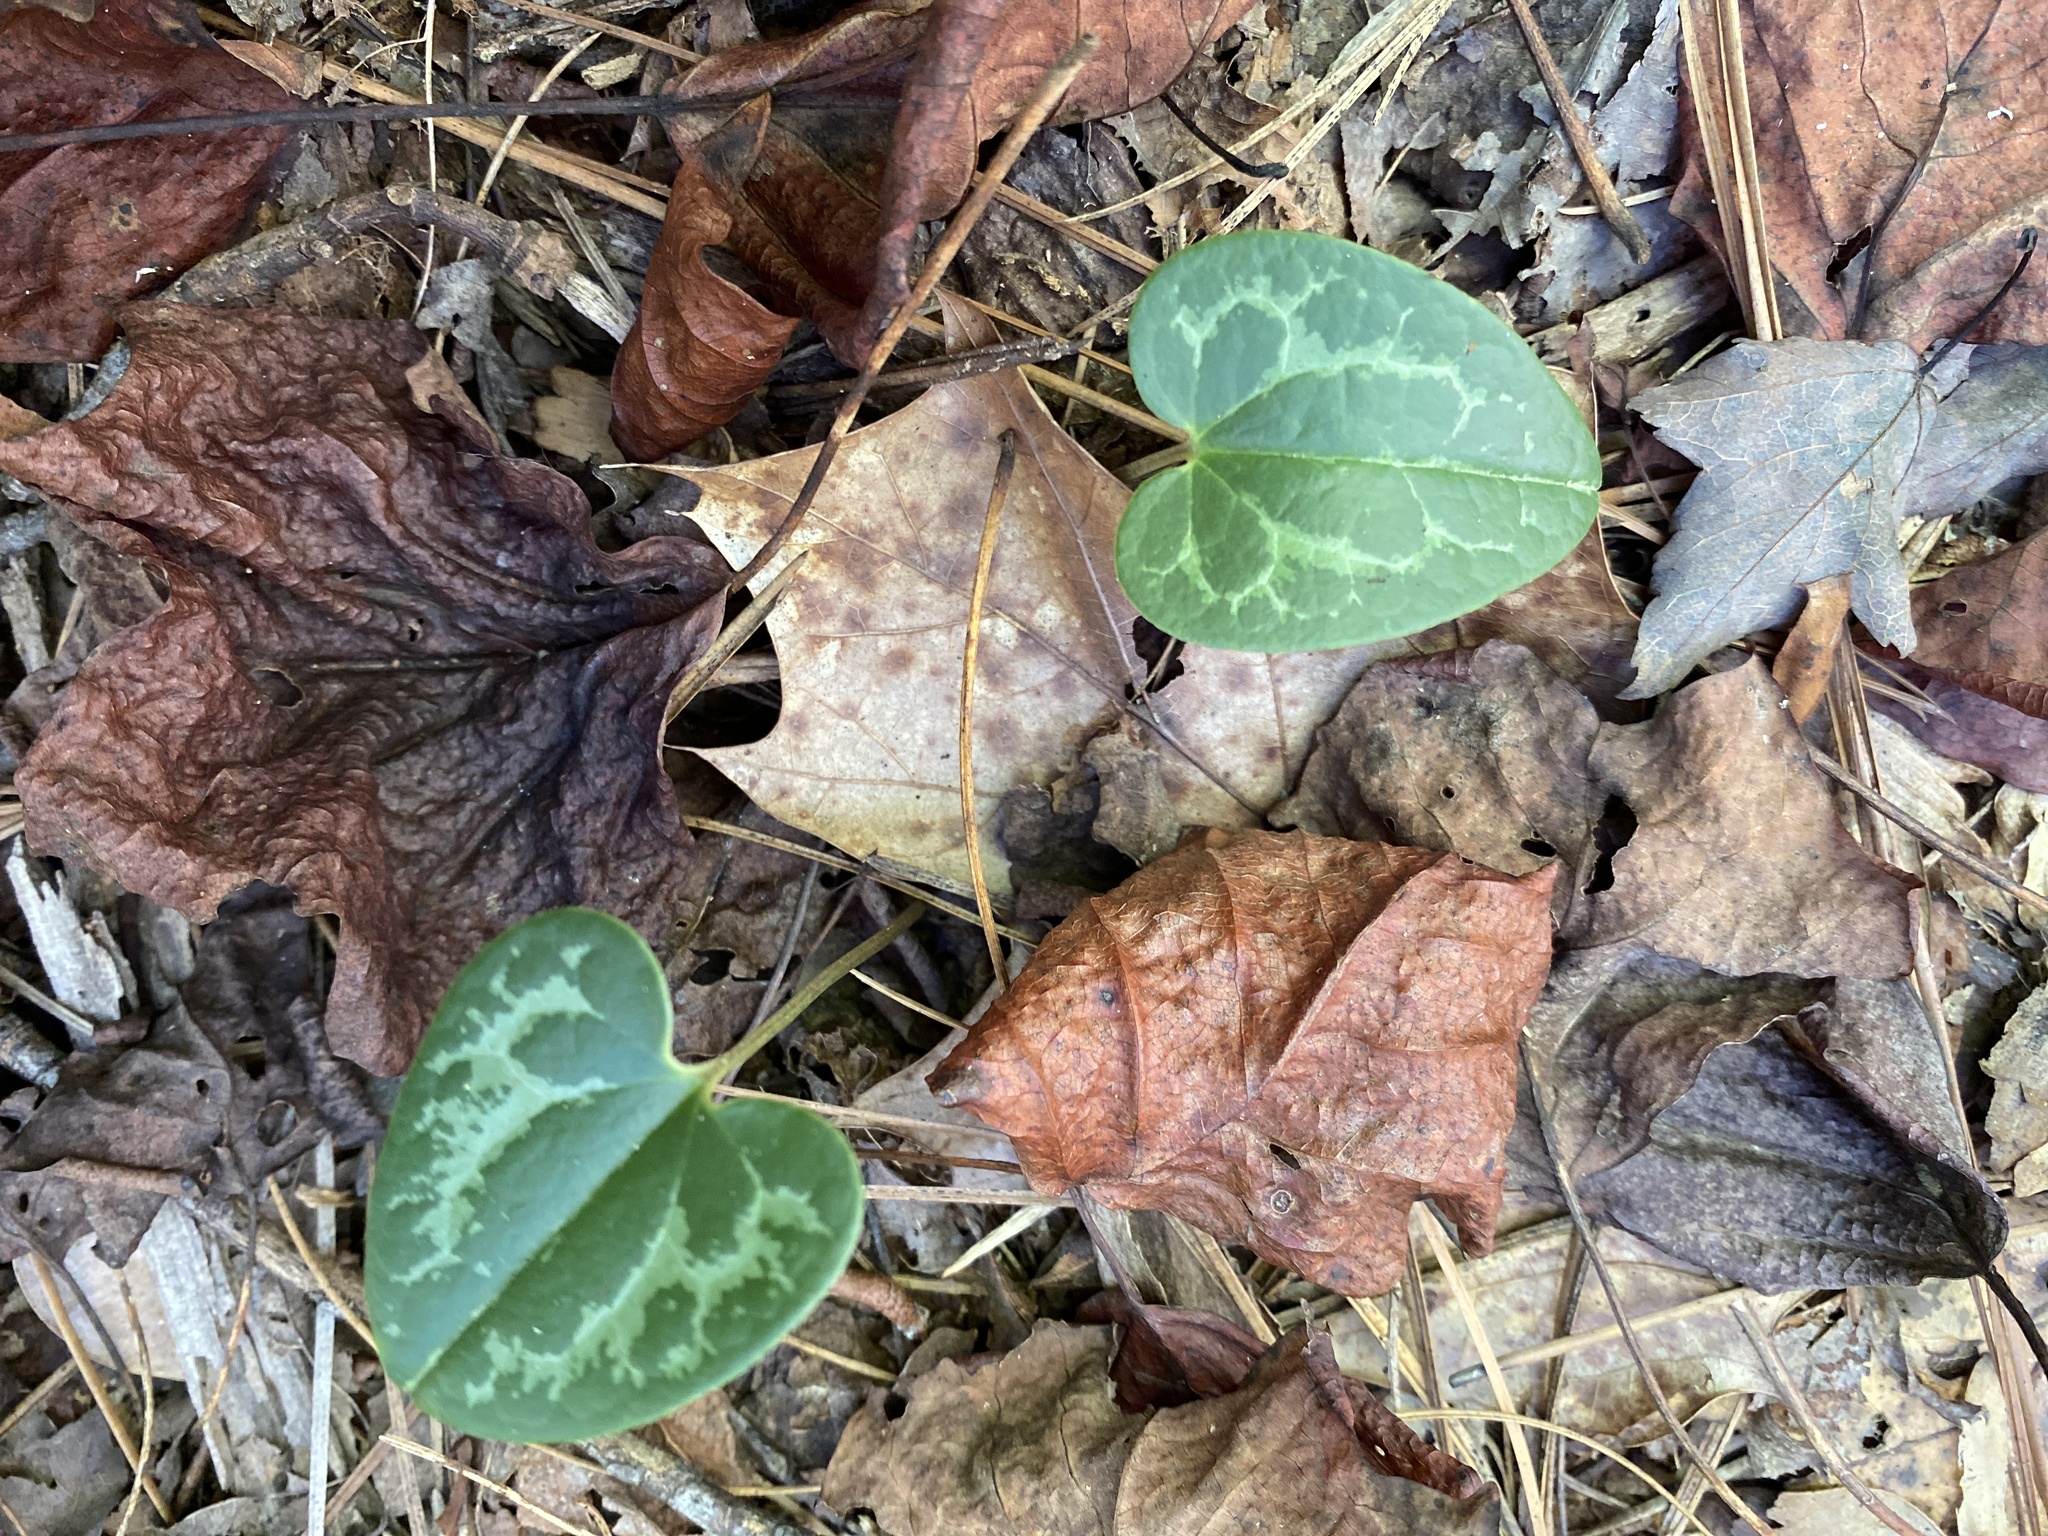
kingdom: Plantae
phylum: Tracheophyta
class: Magnoliopsida
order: Piperales
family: Aristolochiaceae
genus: Hexastylis
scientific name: Hexastylis sorriei
